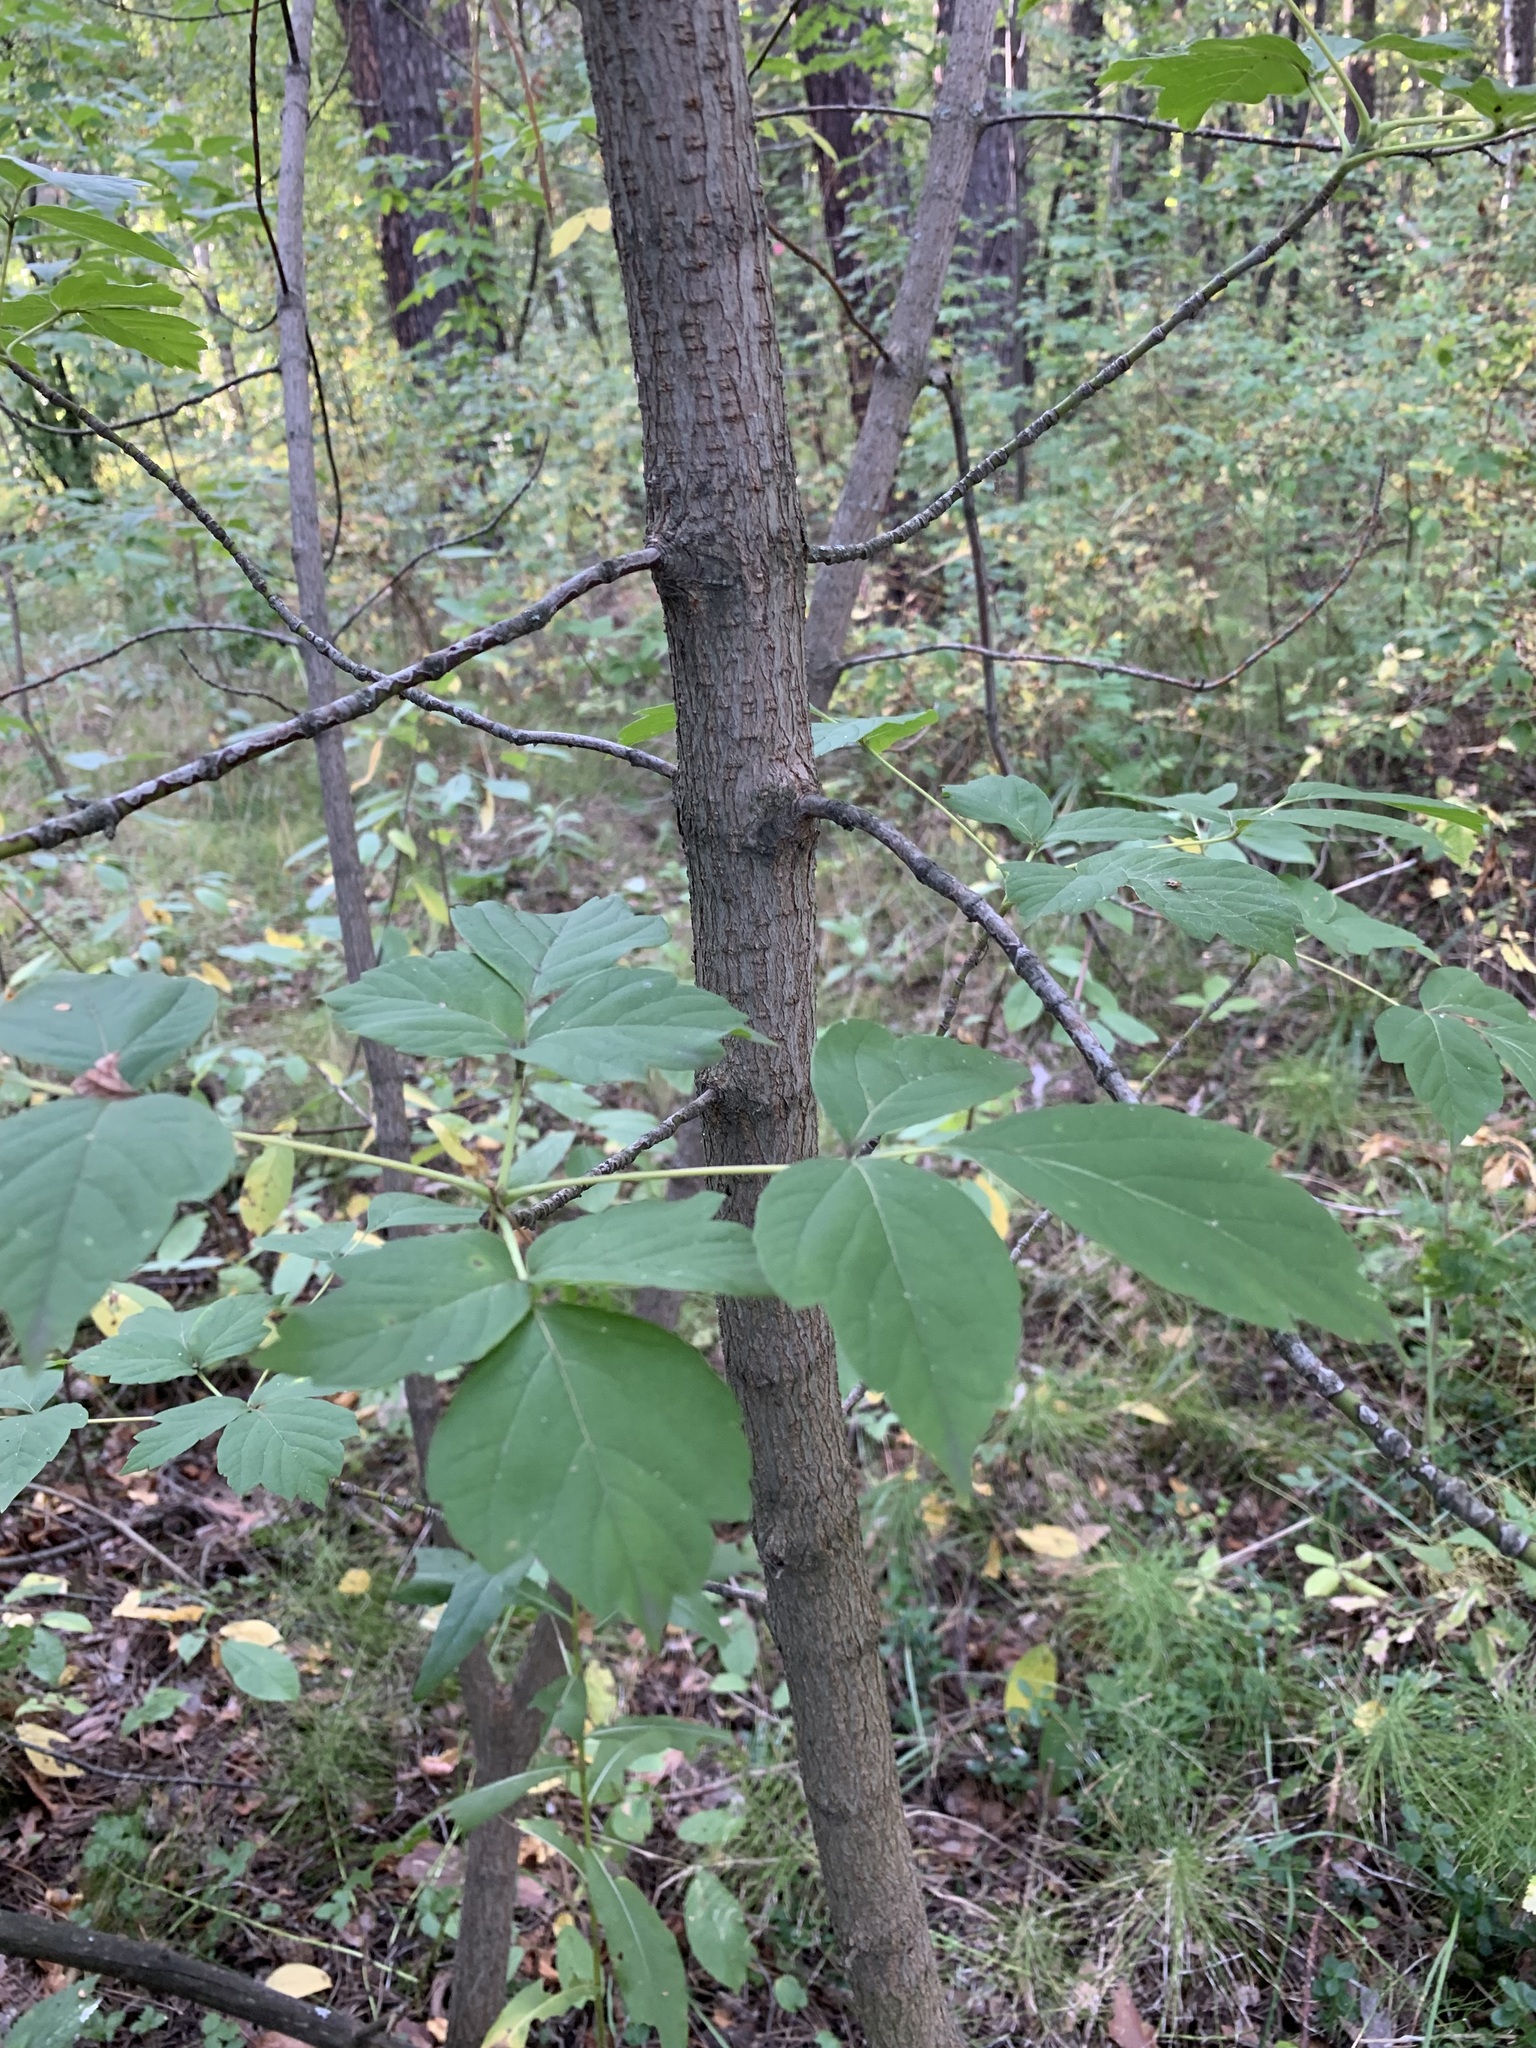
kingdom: Plantae
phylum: Tracheophyta
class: Magnoliopsida
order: Sapindales
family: Sapindaceae
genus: Acer
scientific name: Acer negundo
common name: Ashleaf maple
